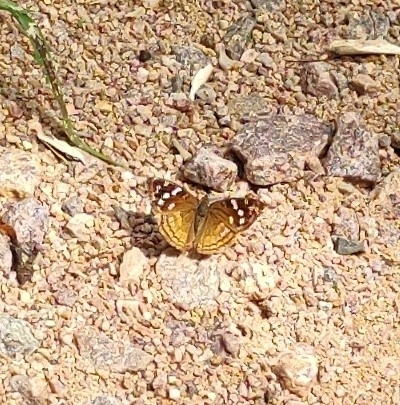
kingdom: Animalia
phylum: Arthropoda
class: Insecta
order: Lepidoptera
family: Nymphalidae
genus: Doxocopa
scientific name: Doxocopa kallina
